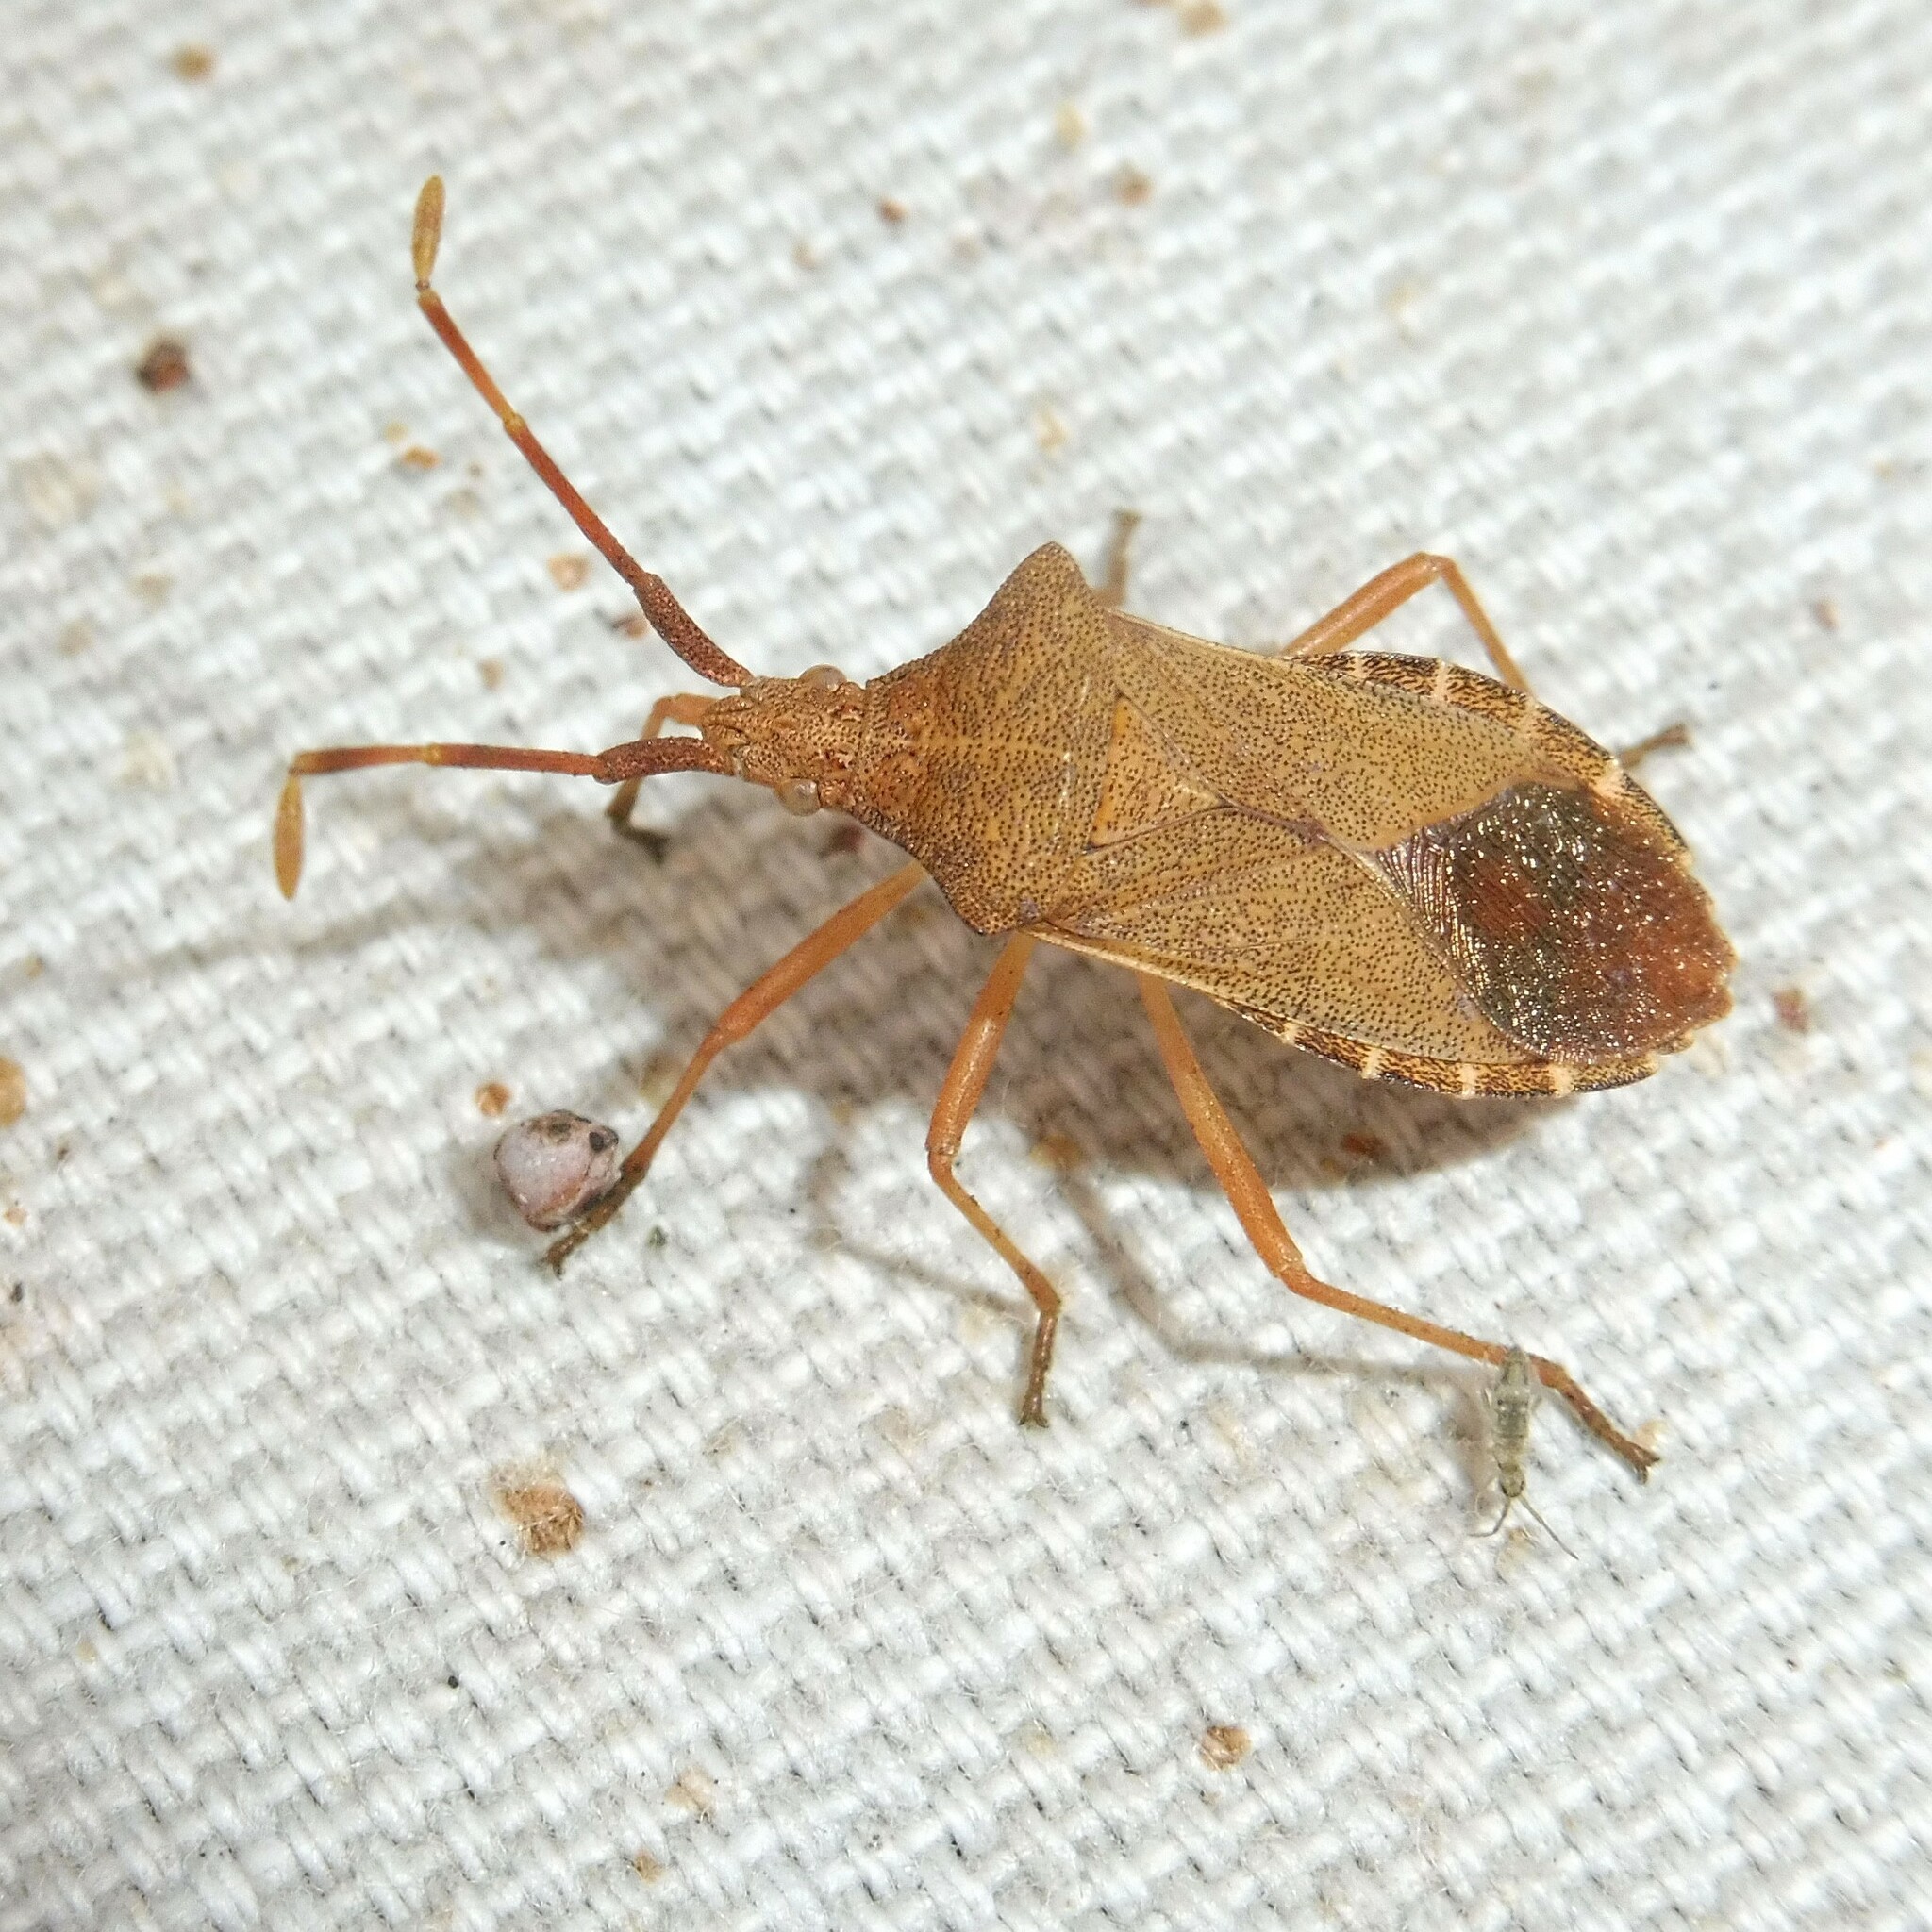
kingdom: Animalia
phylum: Arthropoda
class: Insecta
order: Hemiptera
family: Coreidae
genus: Gonocerus
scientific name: Gonocerus acuteangulatus
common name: Box bug
